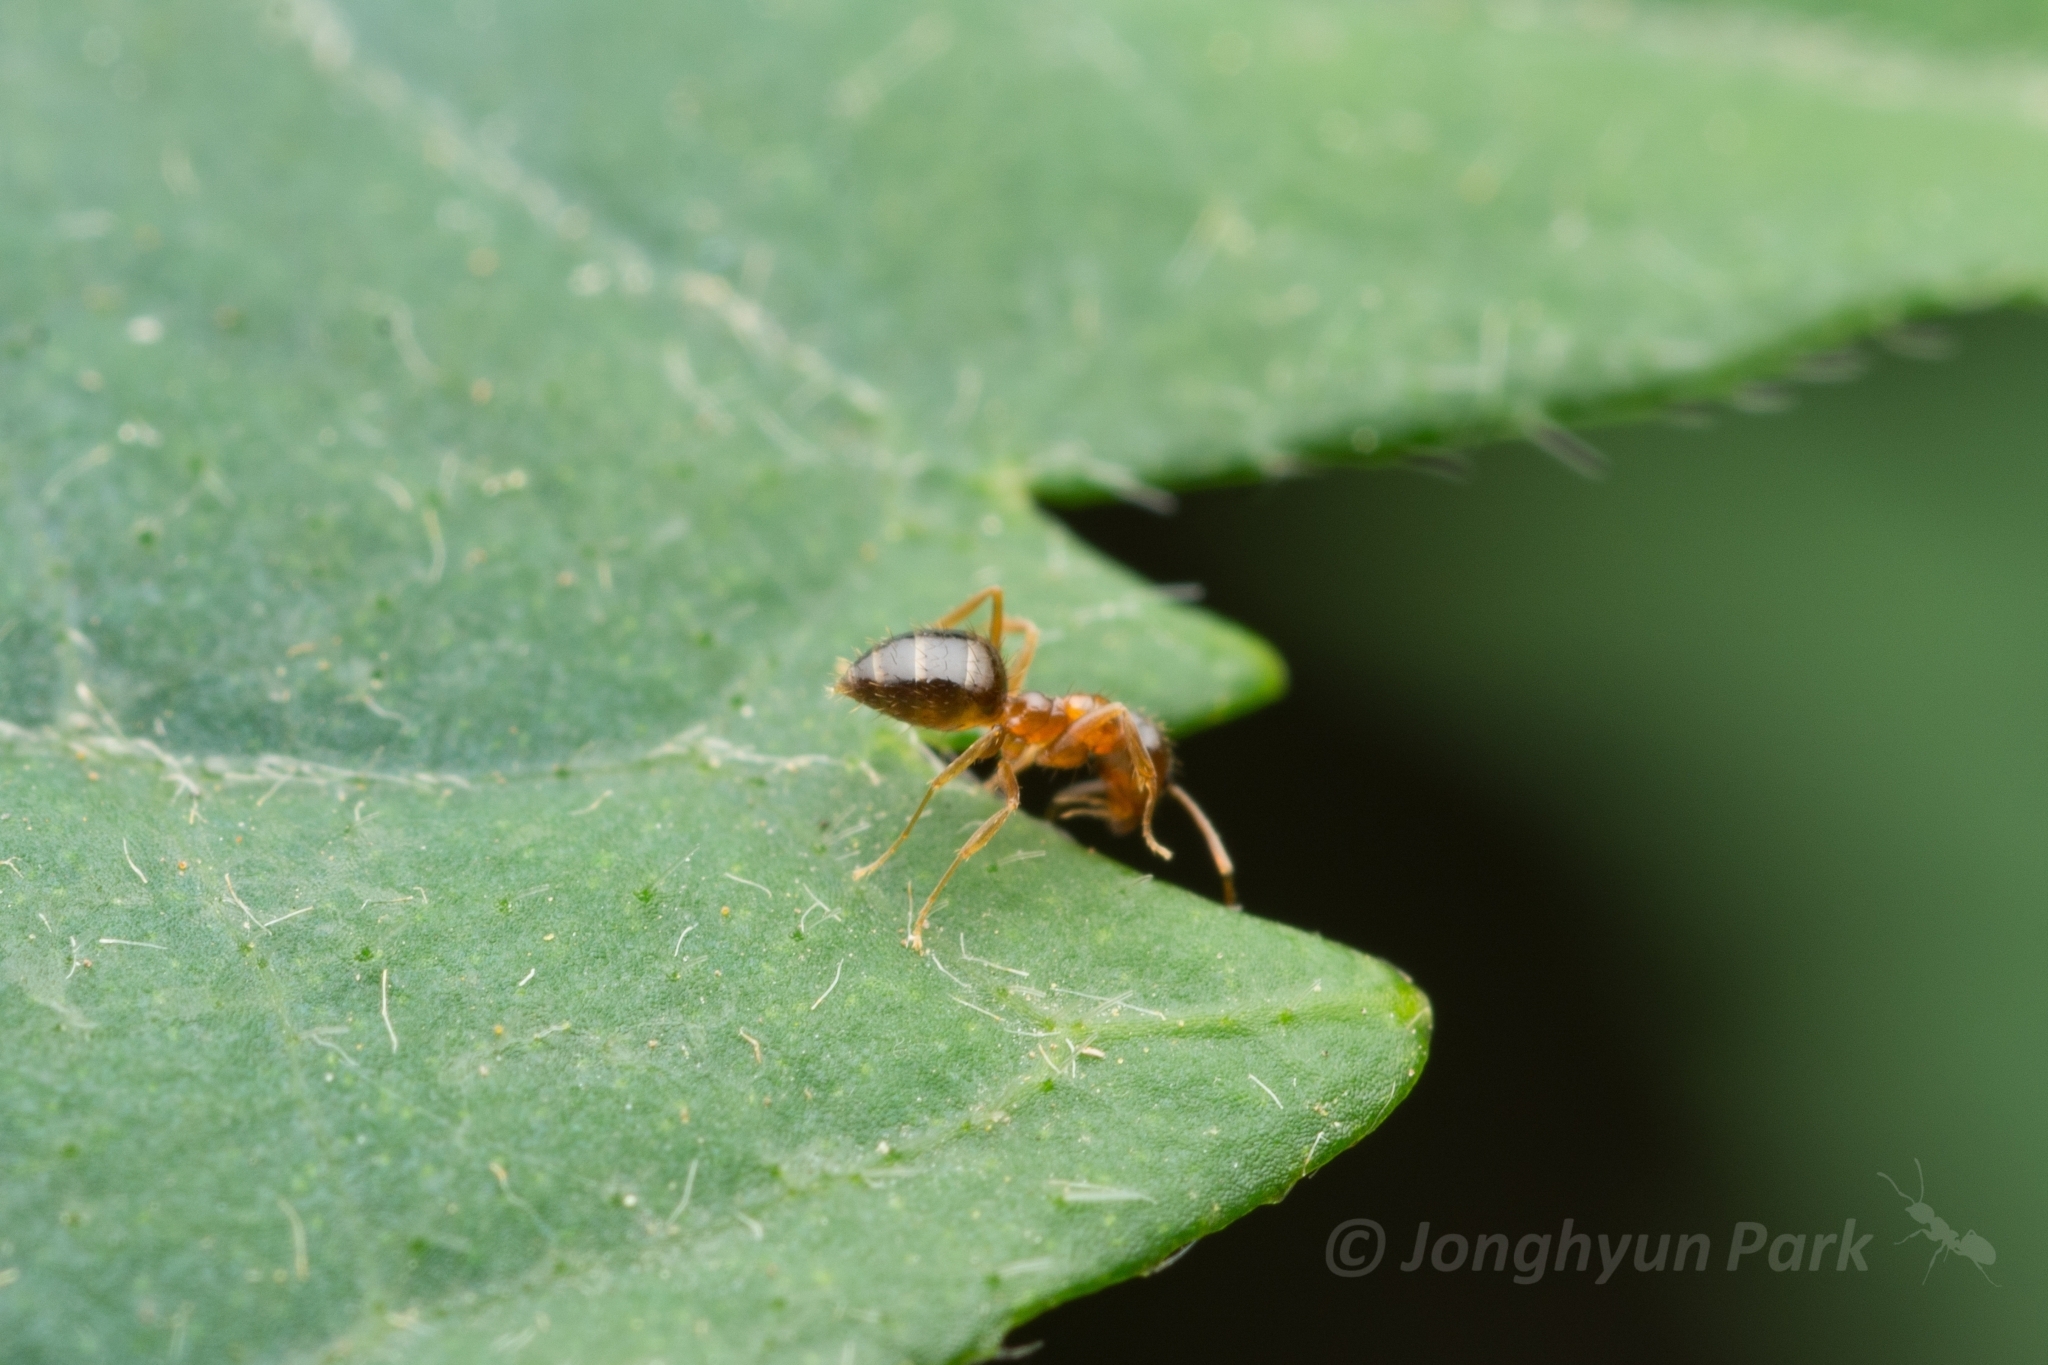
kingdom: Animalia
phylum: Arthropoda
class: Insecta
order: Hymenoptera
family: Formicidae
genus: Paratrechina
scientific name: Paratrechina flavipes
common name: Eastern asian formicine ant
